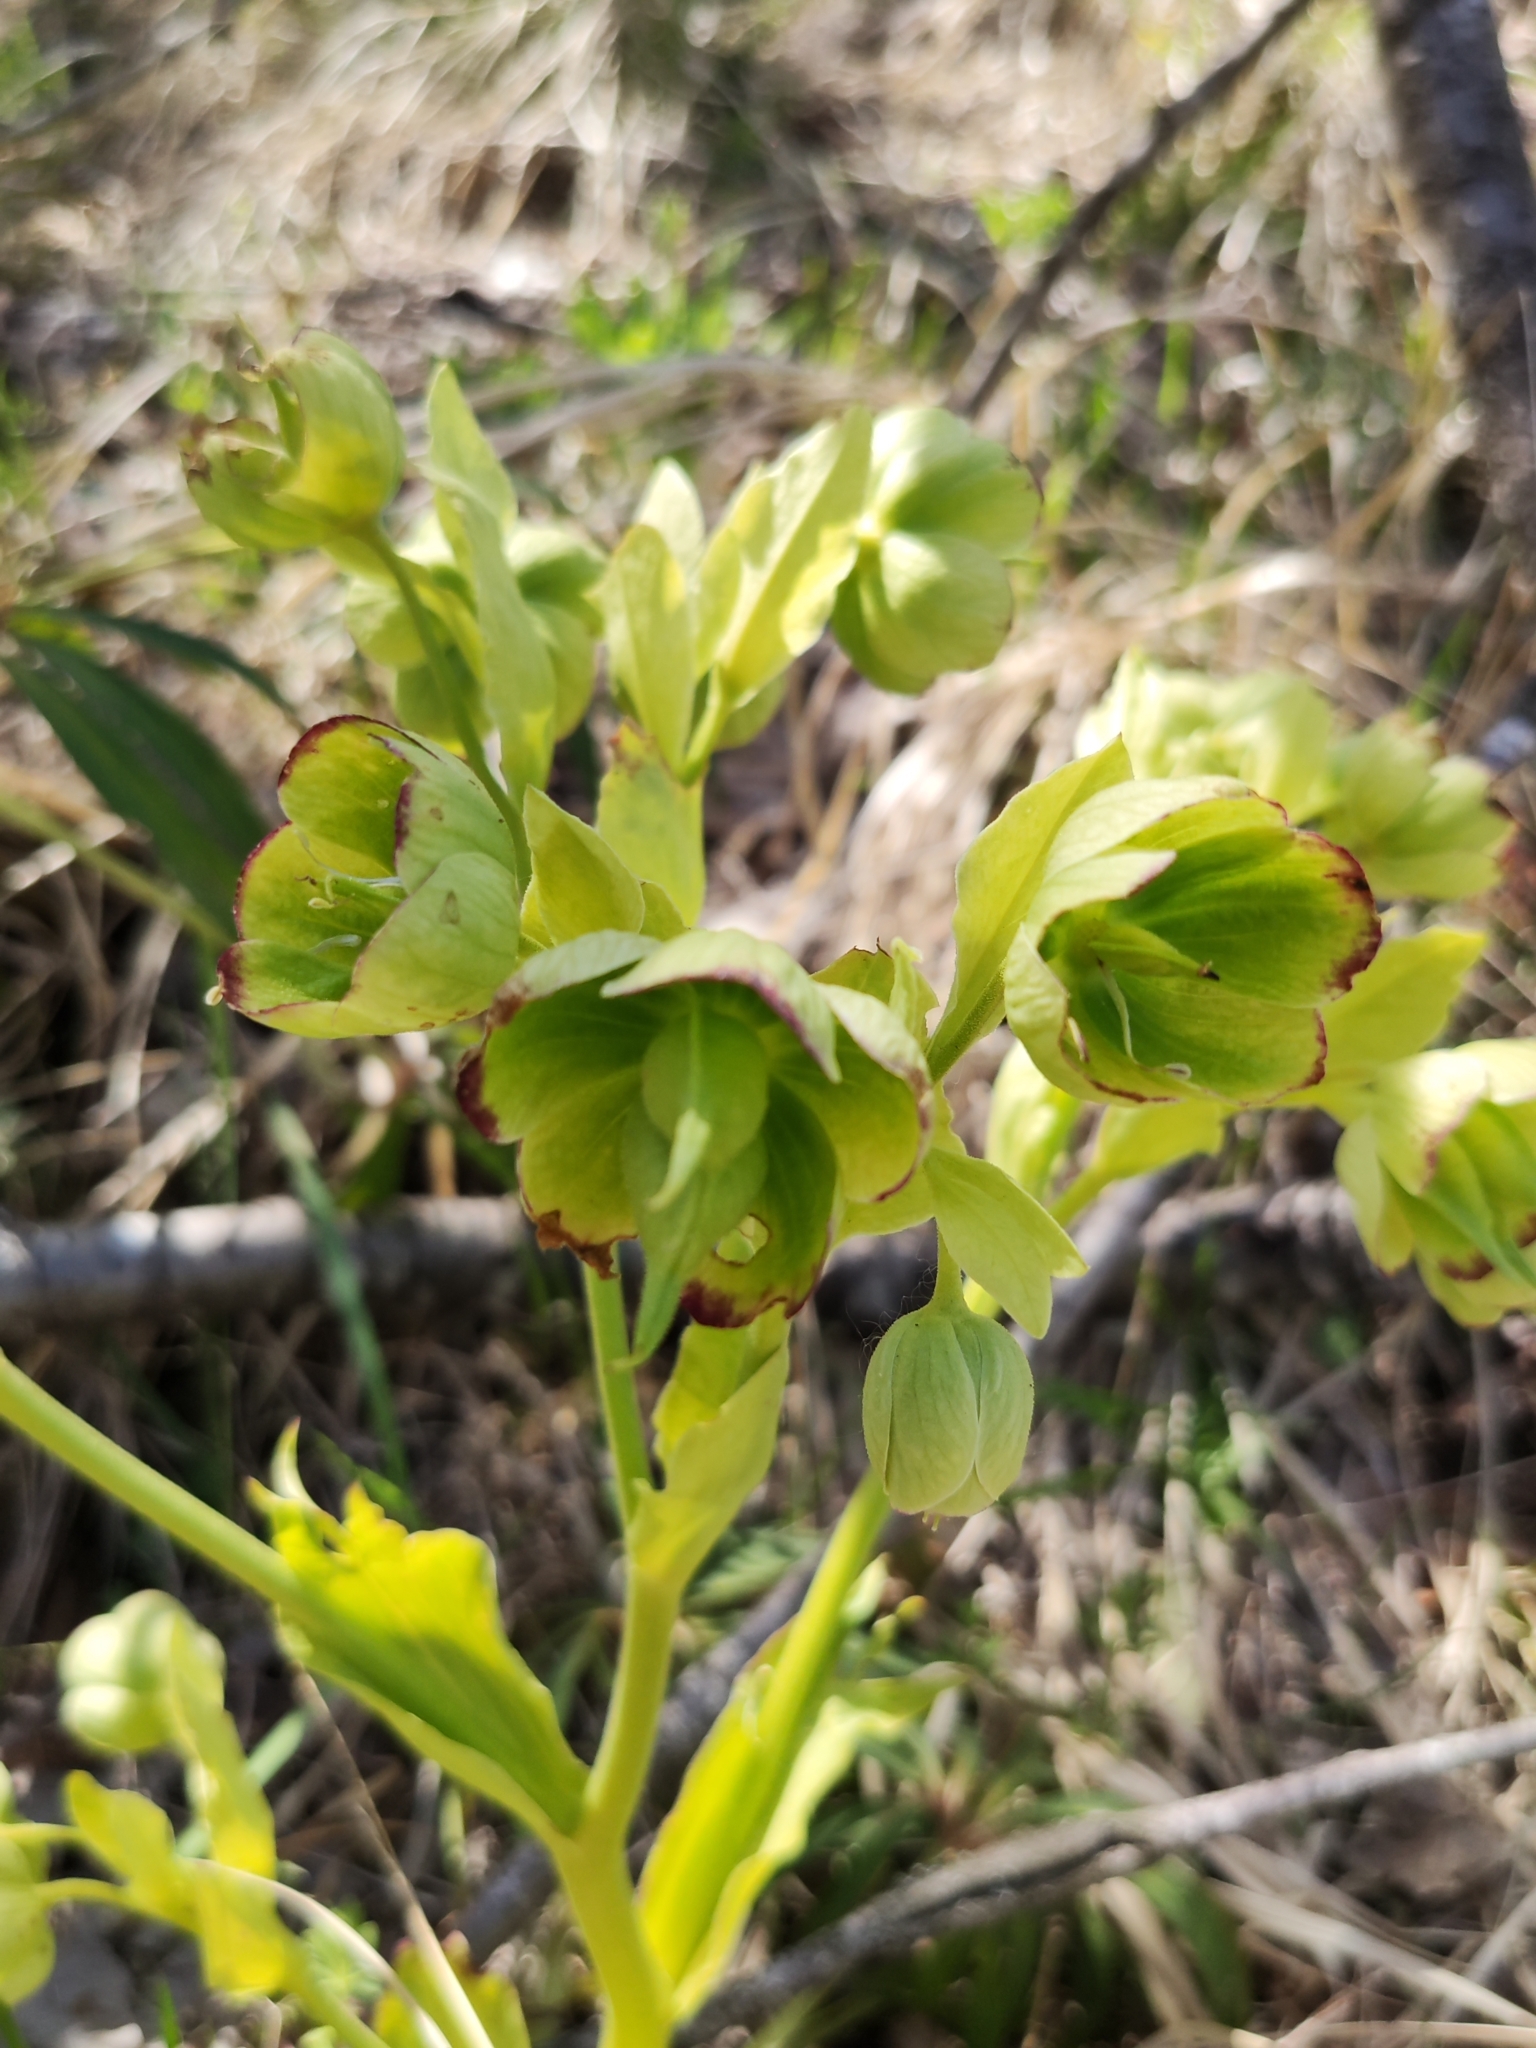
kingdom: Plantae
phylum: Tracheophyta
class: Magnoliopsida
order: Ranunculales
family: Ranunculaceae
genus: Helleborus
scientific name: Helleborus foetidus
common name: Stinking hellebore
